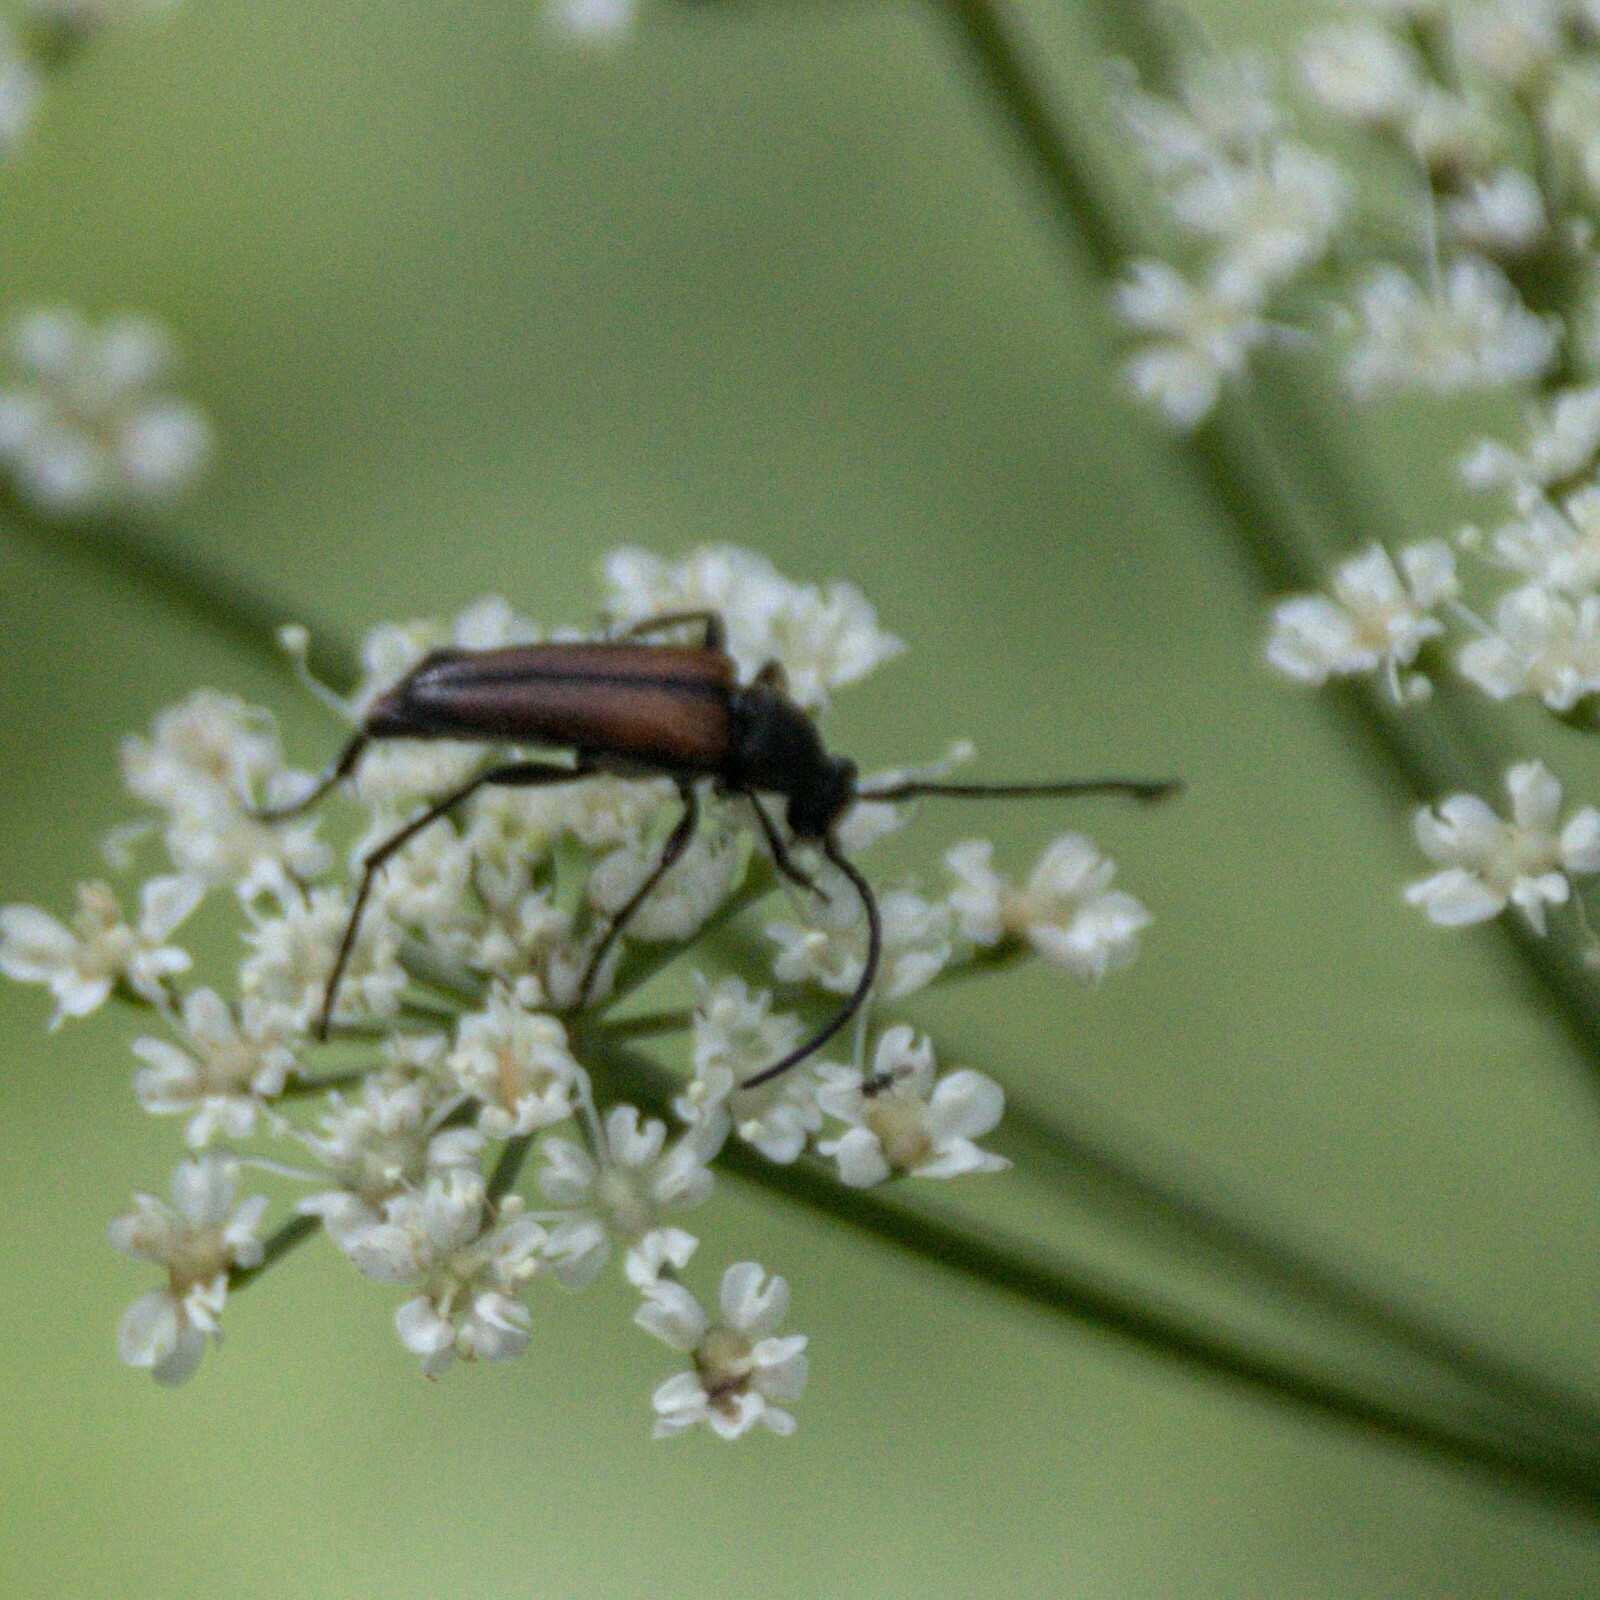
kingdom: Animalia
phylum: Arthropoda
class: Insecta
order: Coleoptera
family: Cerambycidae
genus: Stenurella
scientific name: Stenurella melanura
